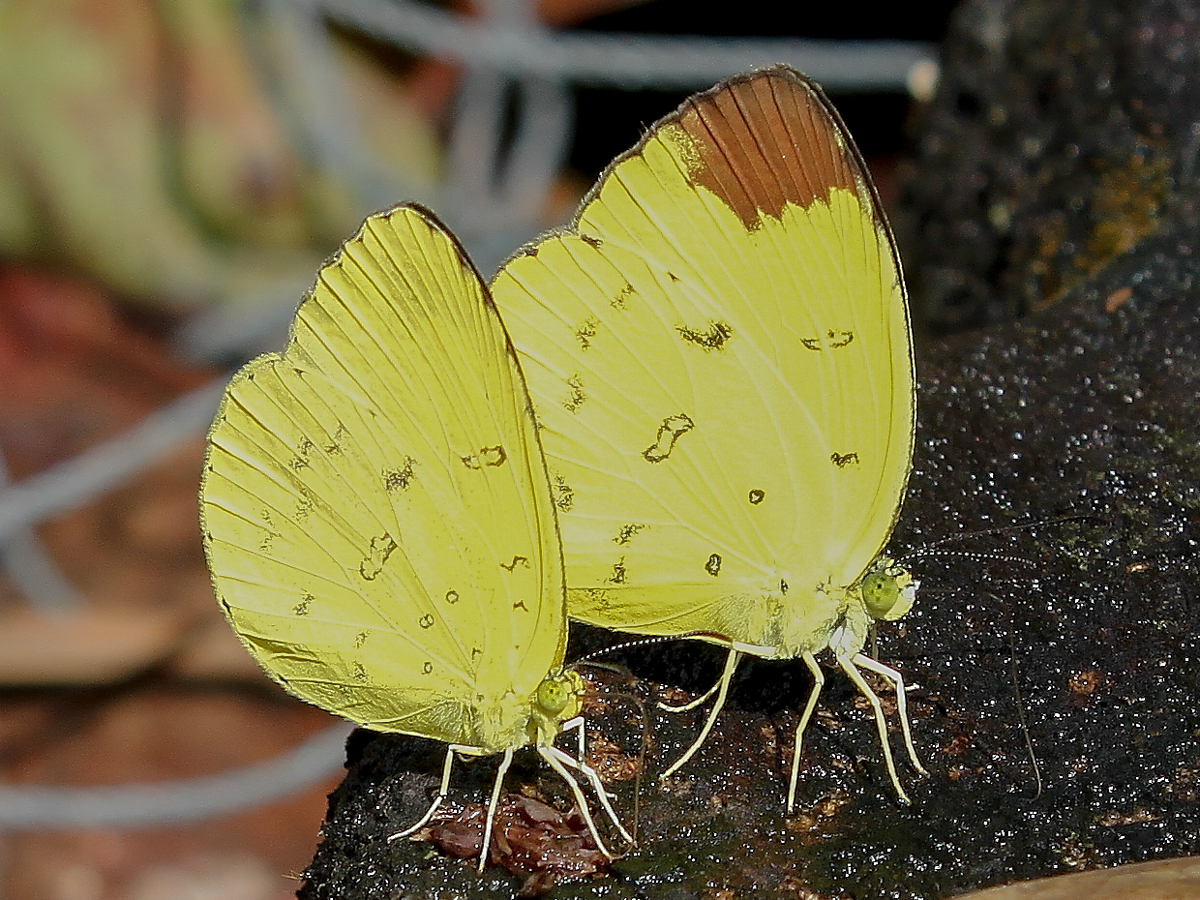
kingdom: Animalia
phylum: Arthropoda
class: Insecta
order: Lepidoptera
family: Pieridae
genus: Eurema
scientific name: Eurema sari
